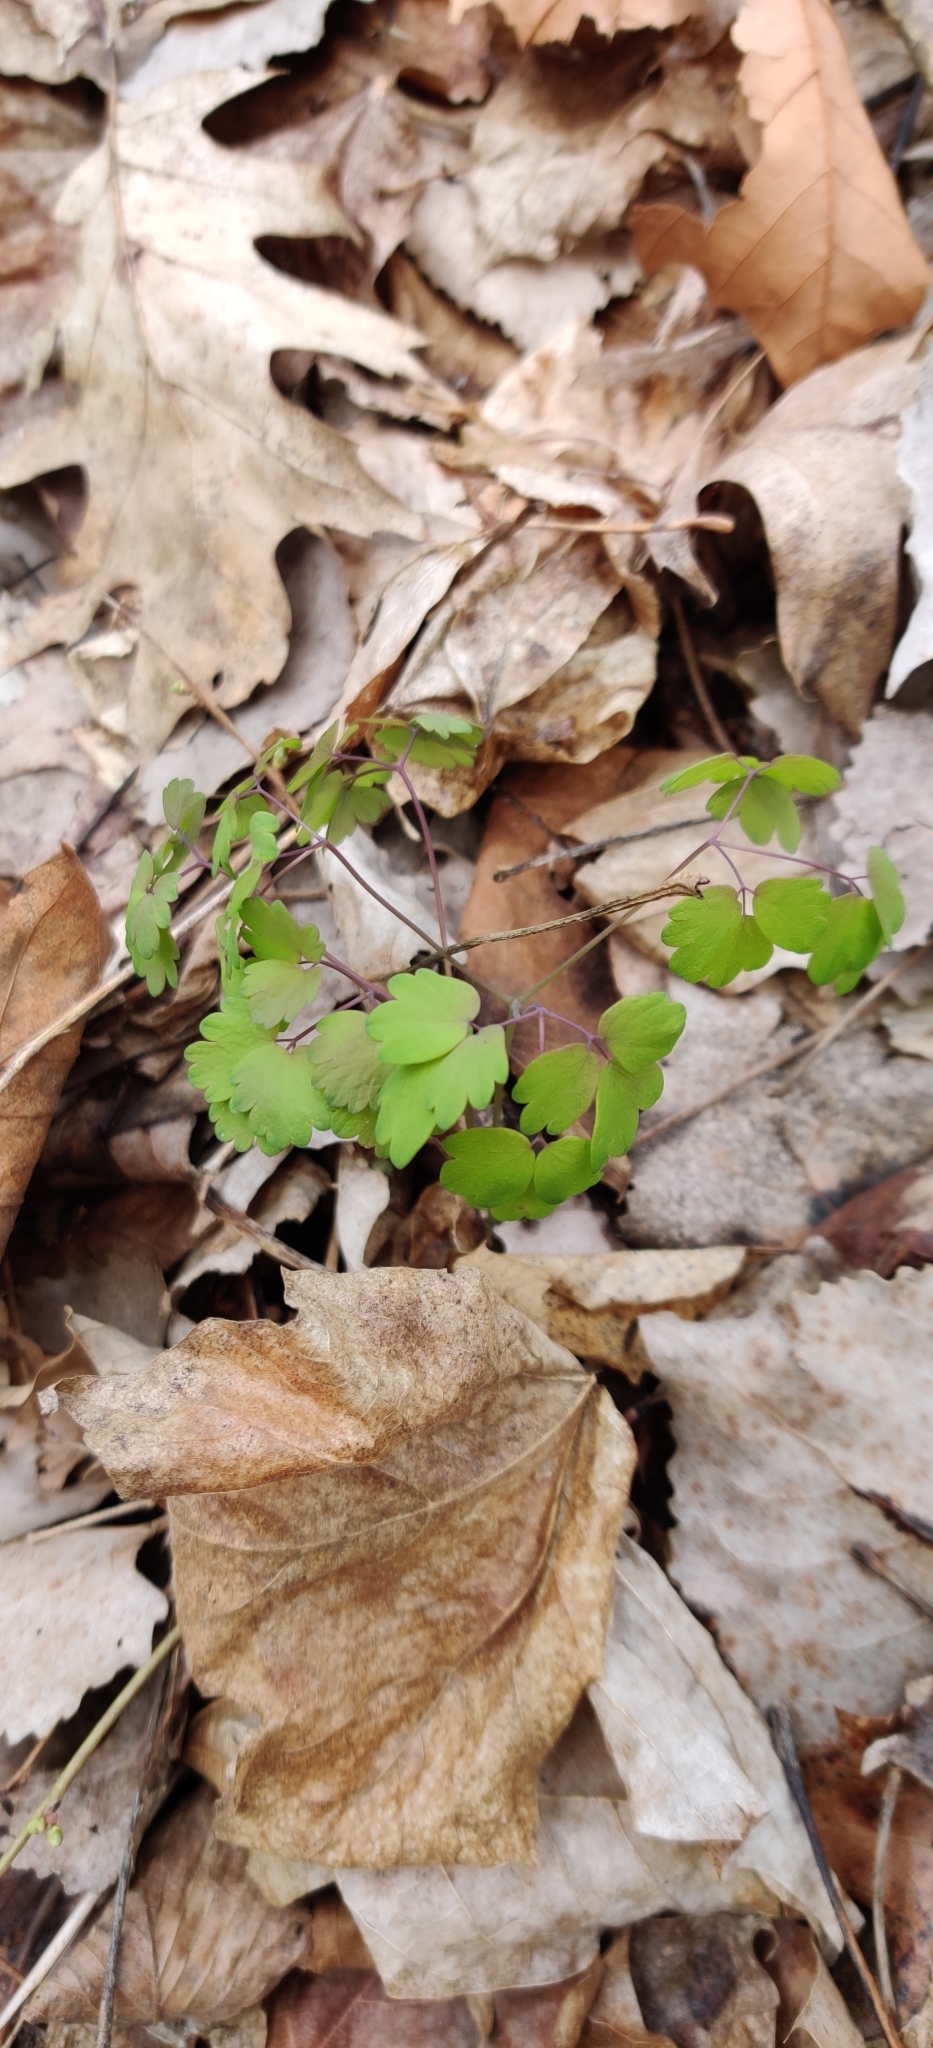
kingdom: Plantae
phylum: Tracheophyta
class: Magnoliopsida
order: Ranunculales
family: Ranunculaceae
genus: Thalictrum
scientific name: Thalictrum dioicum
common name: Early meadow-rue
